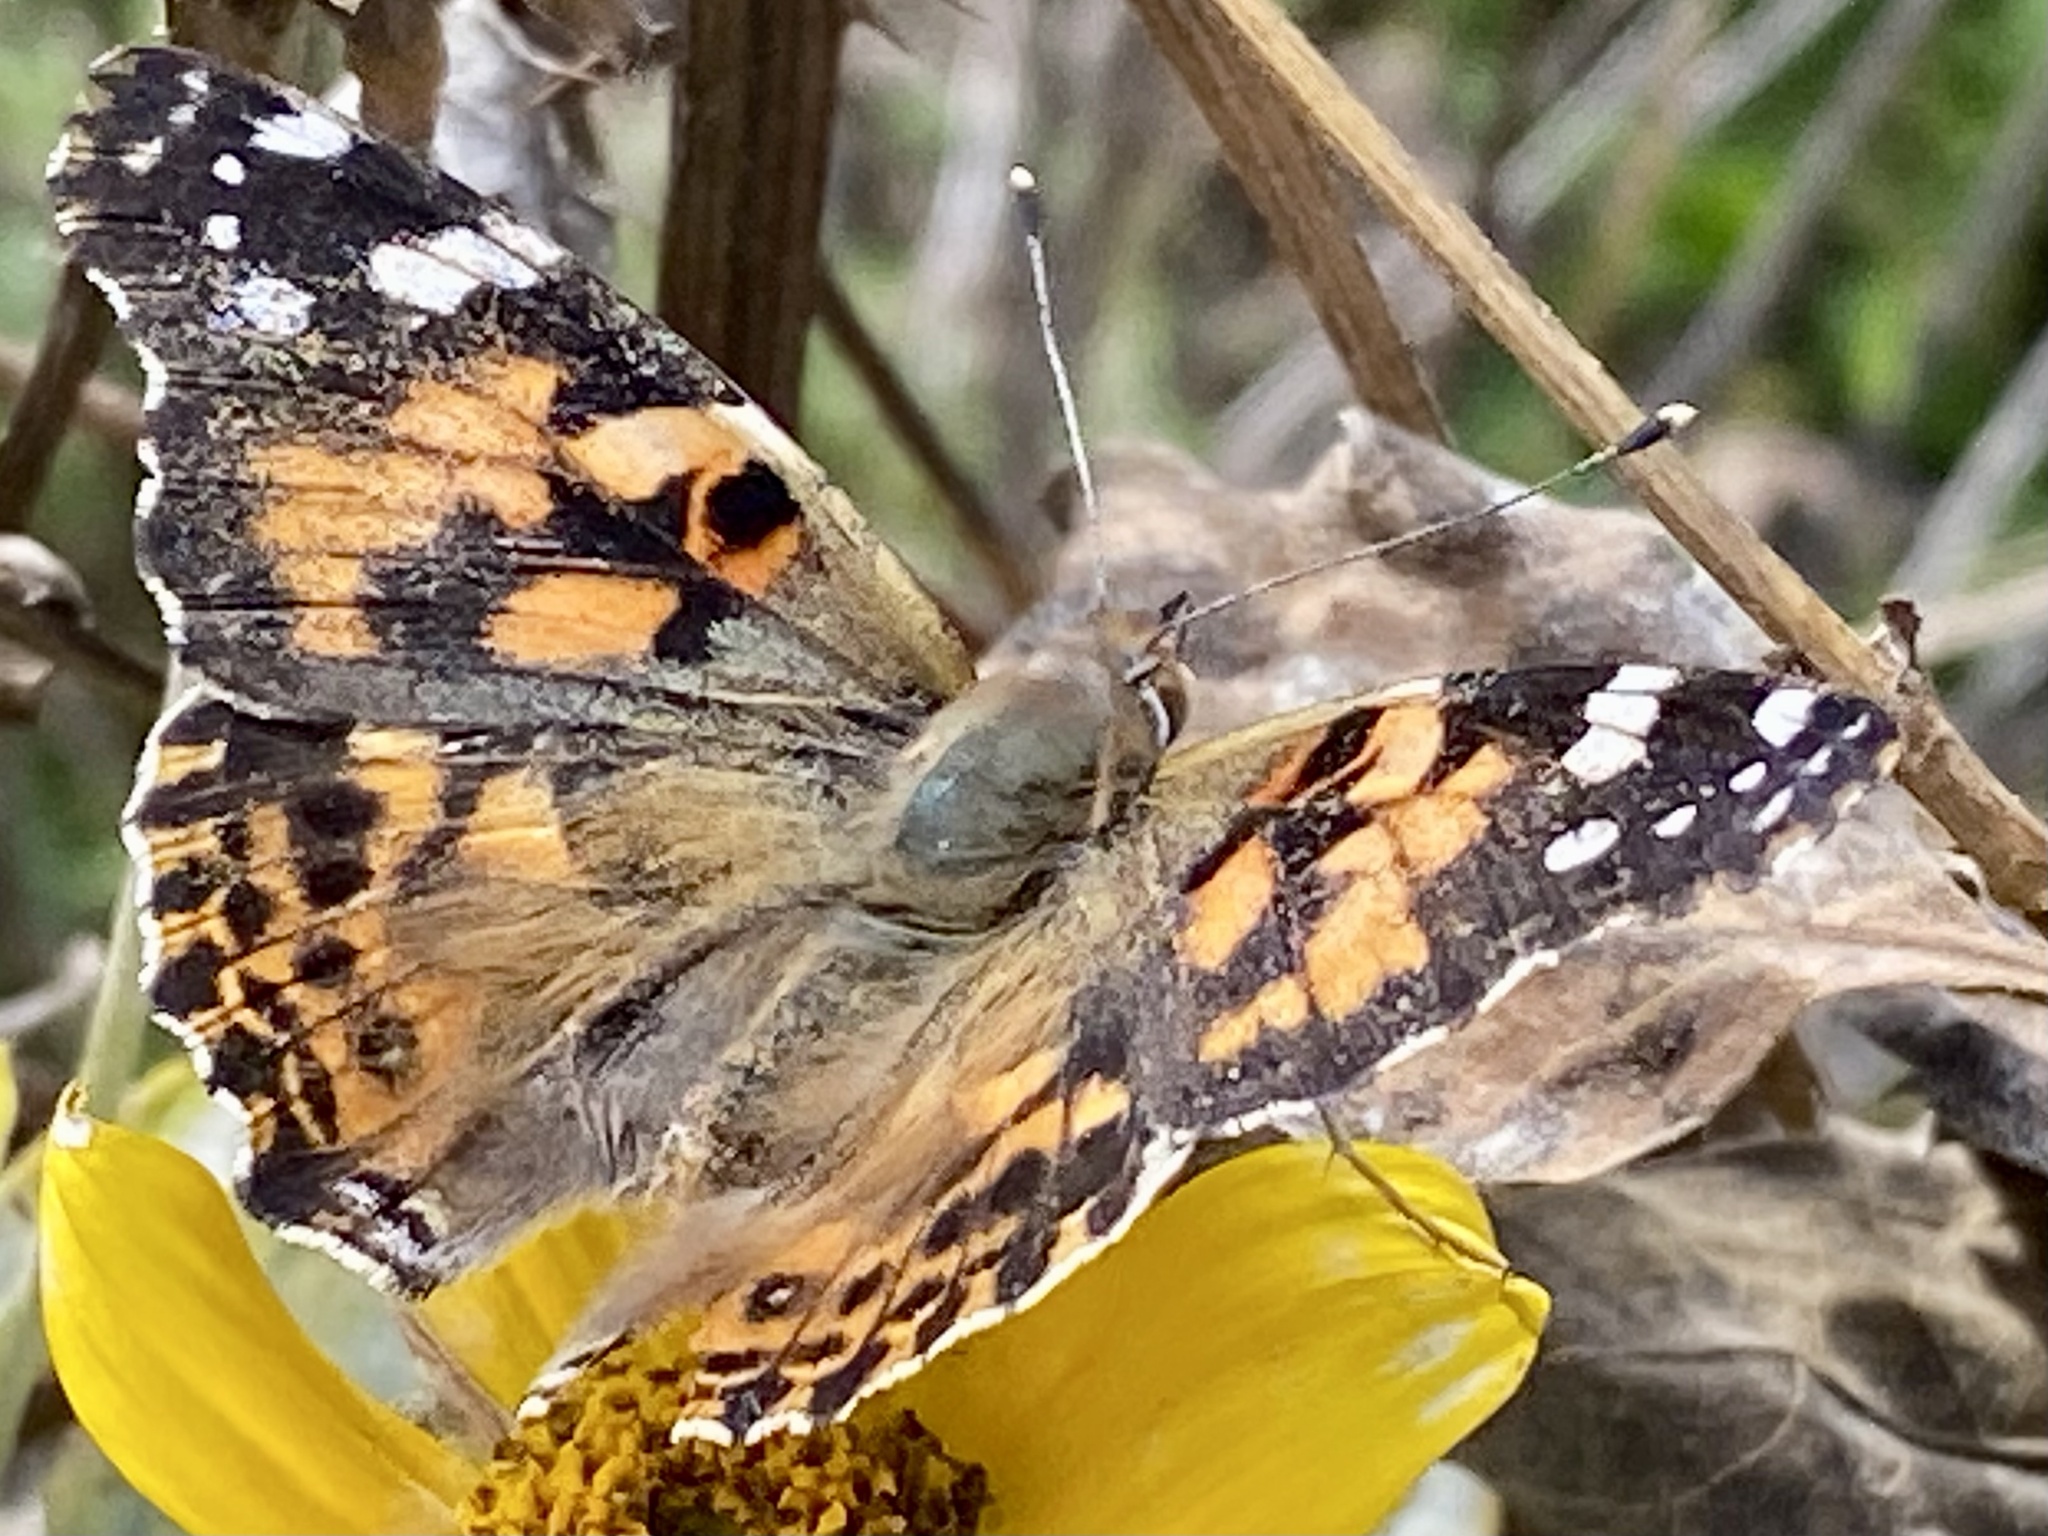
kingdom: Animalia
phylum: Arthropoda
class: Insecta
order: Lepidoptera
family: Nymphalidae
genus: Vanessa
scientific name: Vanessa cardui
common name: Painted lady
